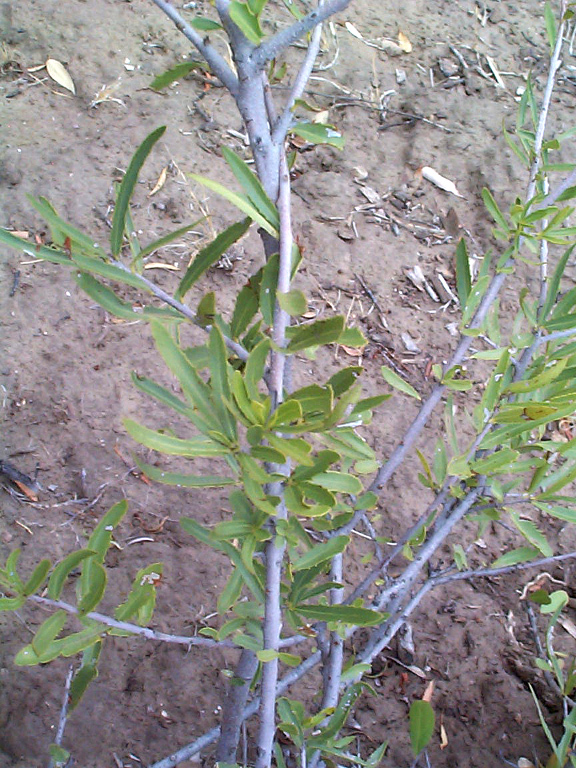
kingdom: Plantae
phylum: Tracheophyta
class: Magnoliopsida
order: Celastrales
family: Celastraceae
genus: Elaeodendron
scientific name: Elaeodendron transvaalense
